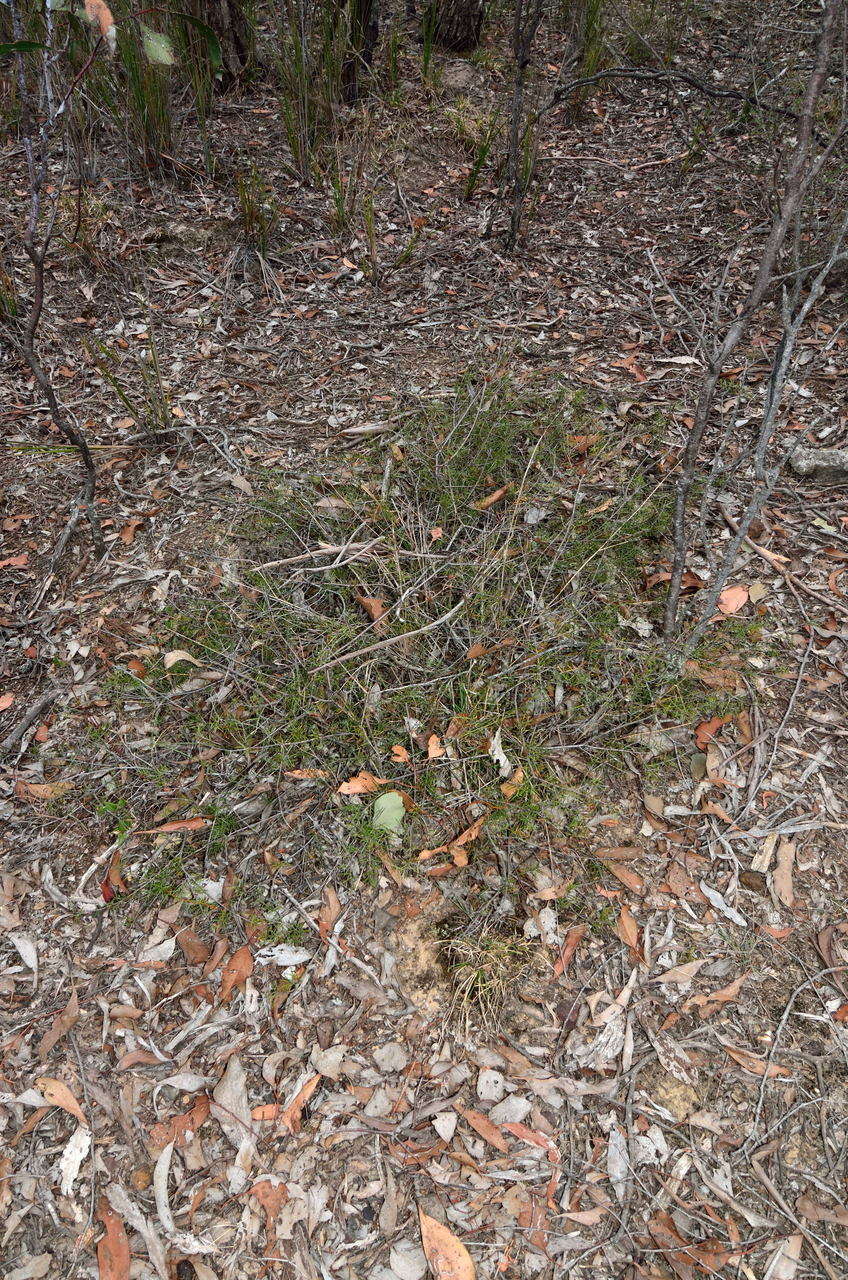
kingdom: Plantae
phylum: Tracheophyta
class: Magnoliopsida
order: Fabales
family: Fabaceae
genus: Acacia
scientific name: Acacia brownii
